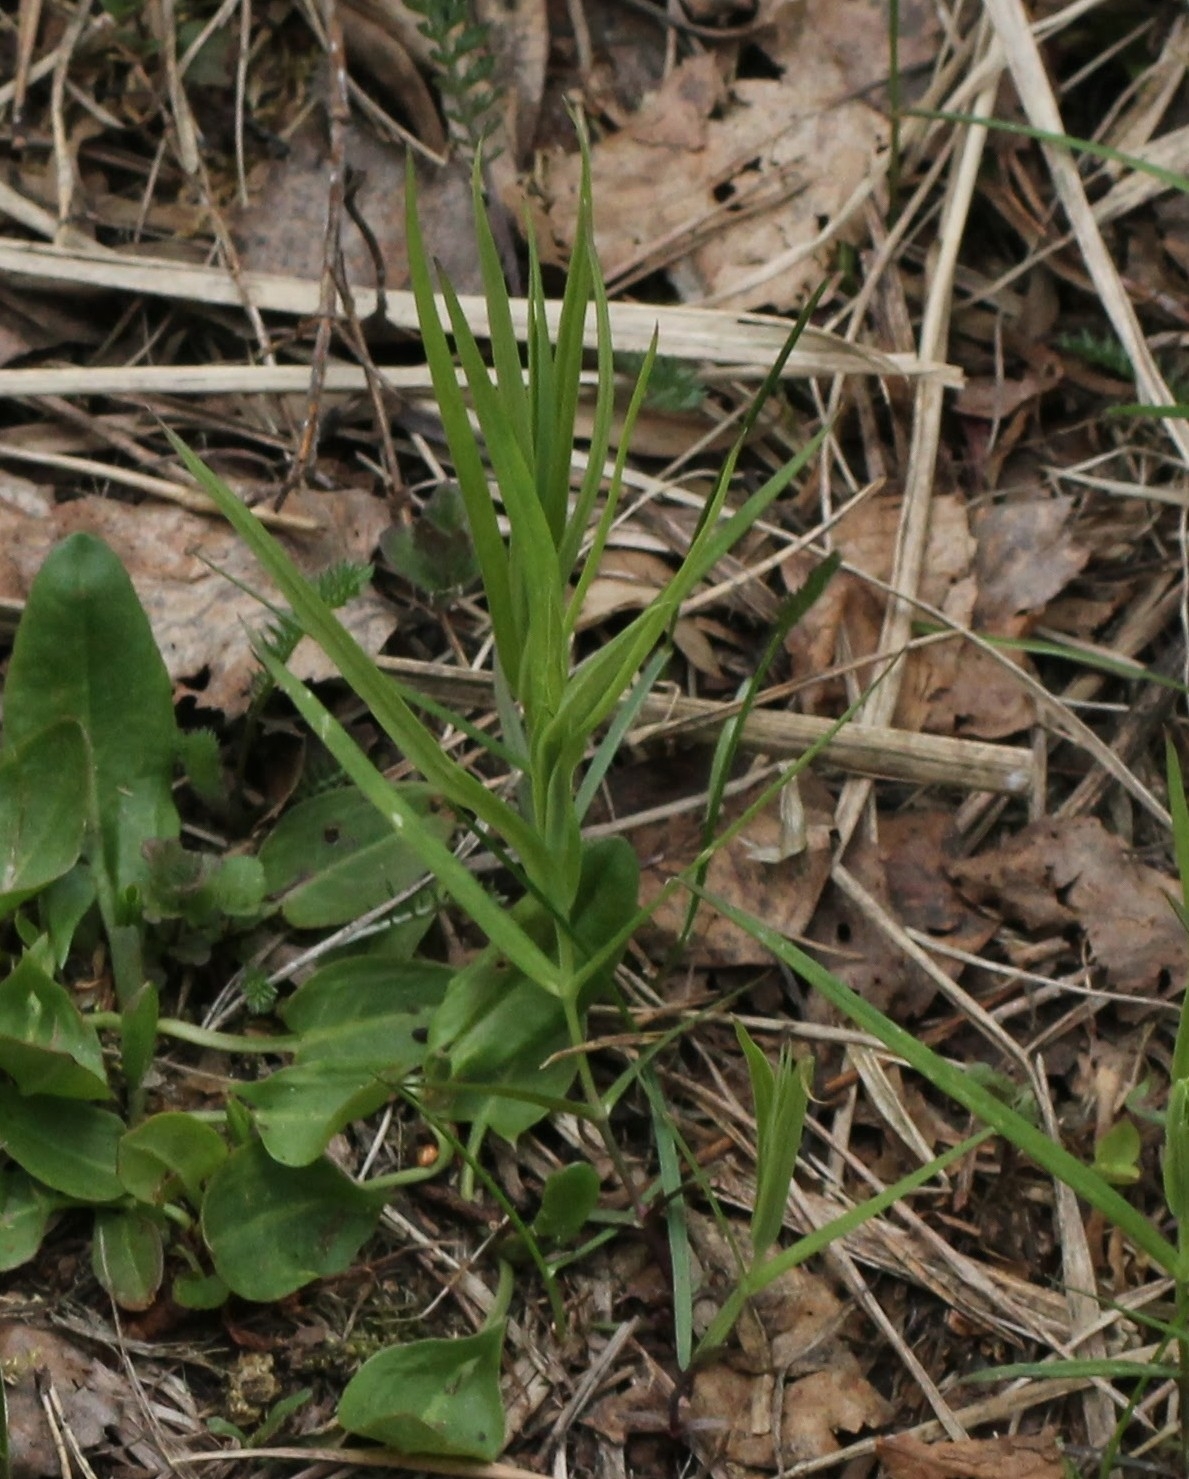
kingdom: Plantae
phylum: Tracheophyta
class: Magnoliopsida
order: Caryophyllales
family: Caryophyllaceae
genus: Rabelera
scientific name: Rabelera holostea
